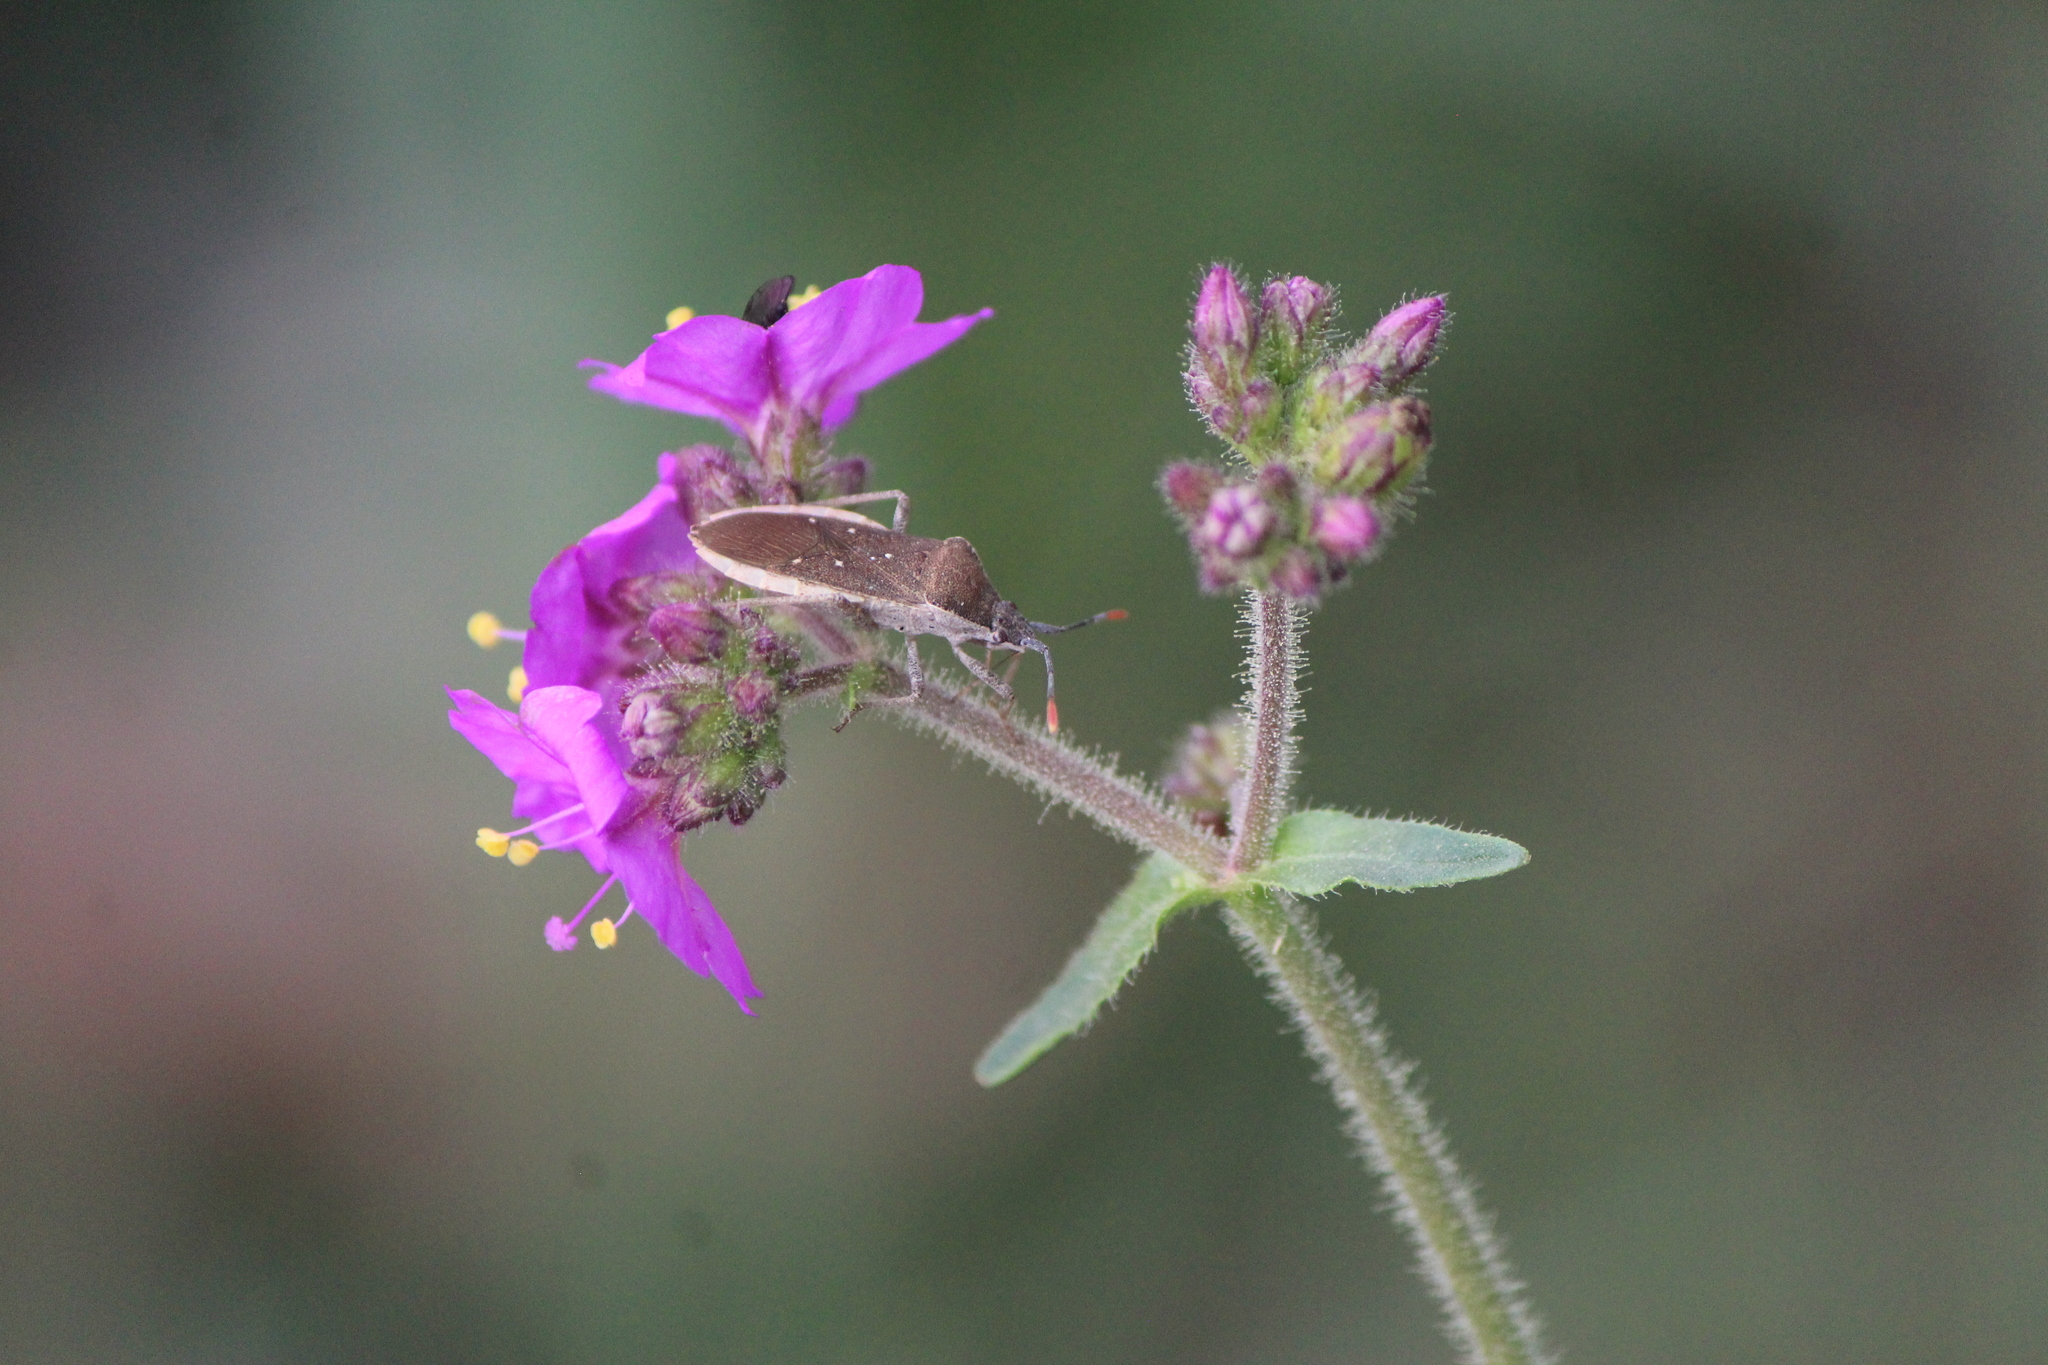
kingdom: Animalia
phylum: Arthropoda
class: Insecta
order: Hemiptera
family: Coreidae
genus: Catorhintha
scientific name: Catorhintha apicalis
